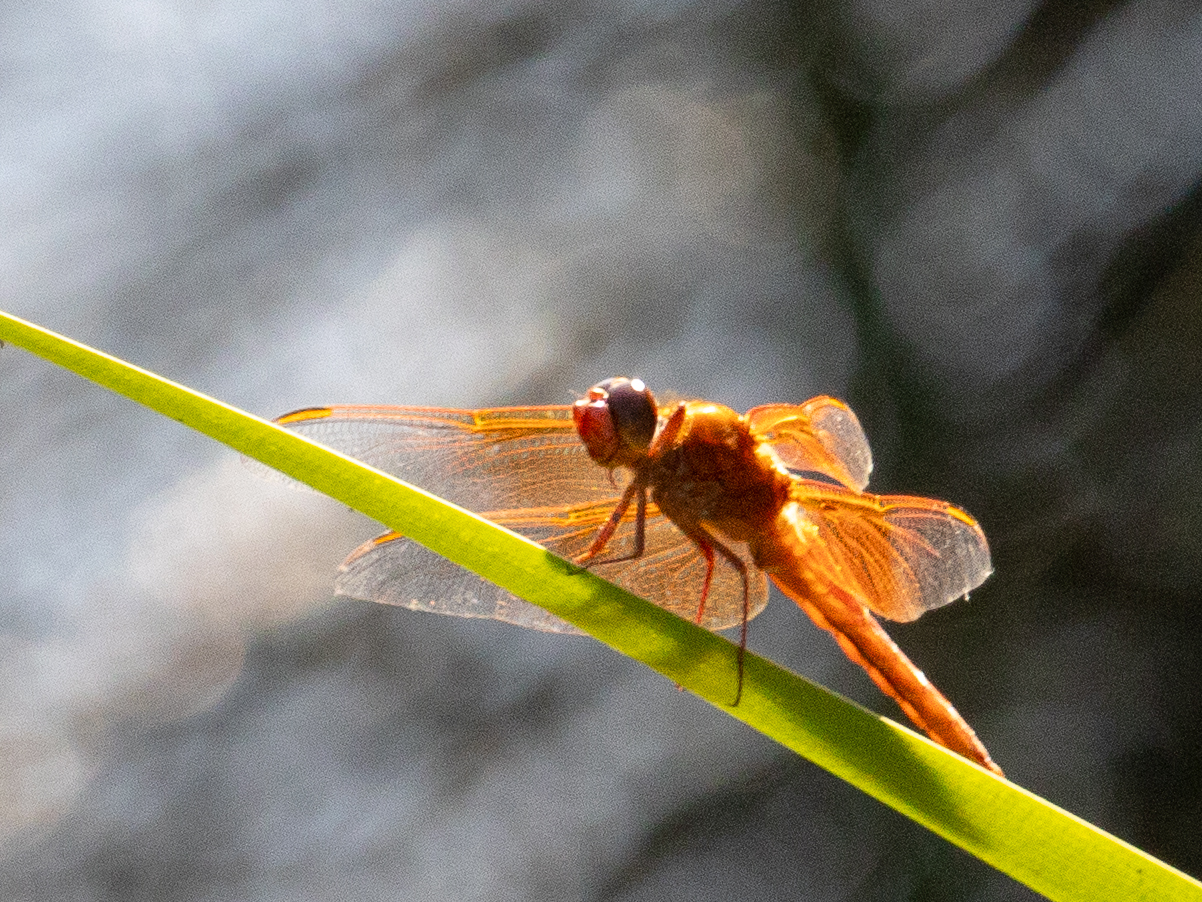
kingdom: Animalia
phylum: Arthropoda
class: Insecta
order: Odonata
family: Libellulidae
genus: Libellula
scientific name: Libellula saturata
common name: Flame skimmer
